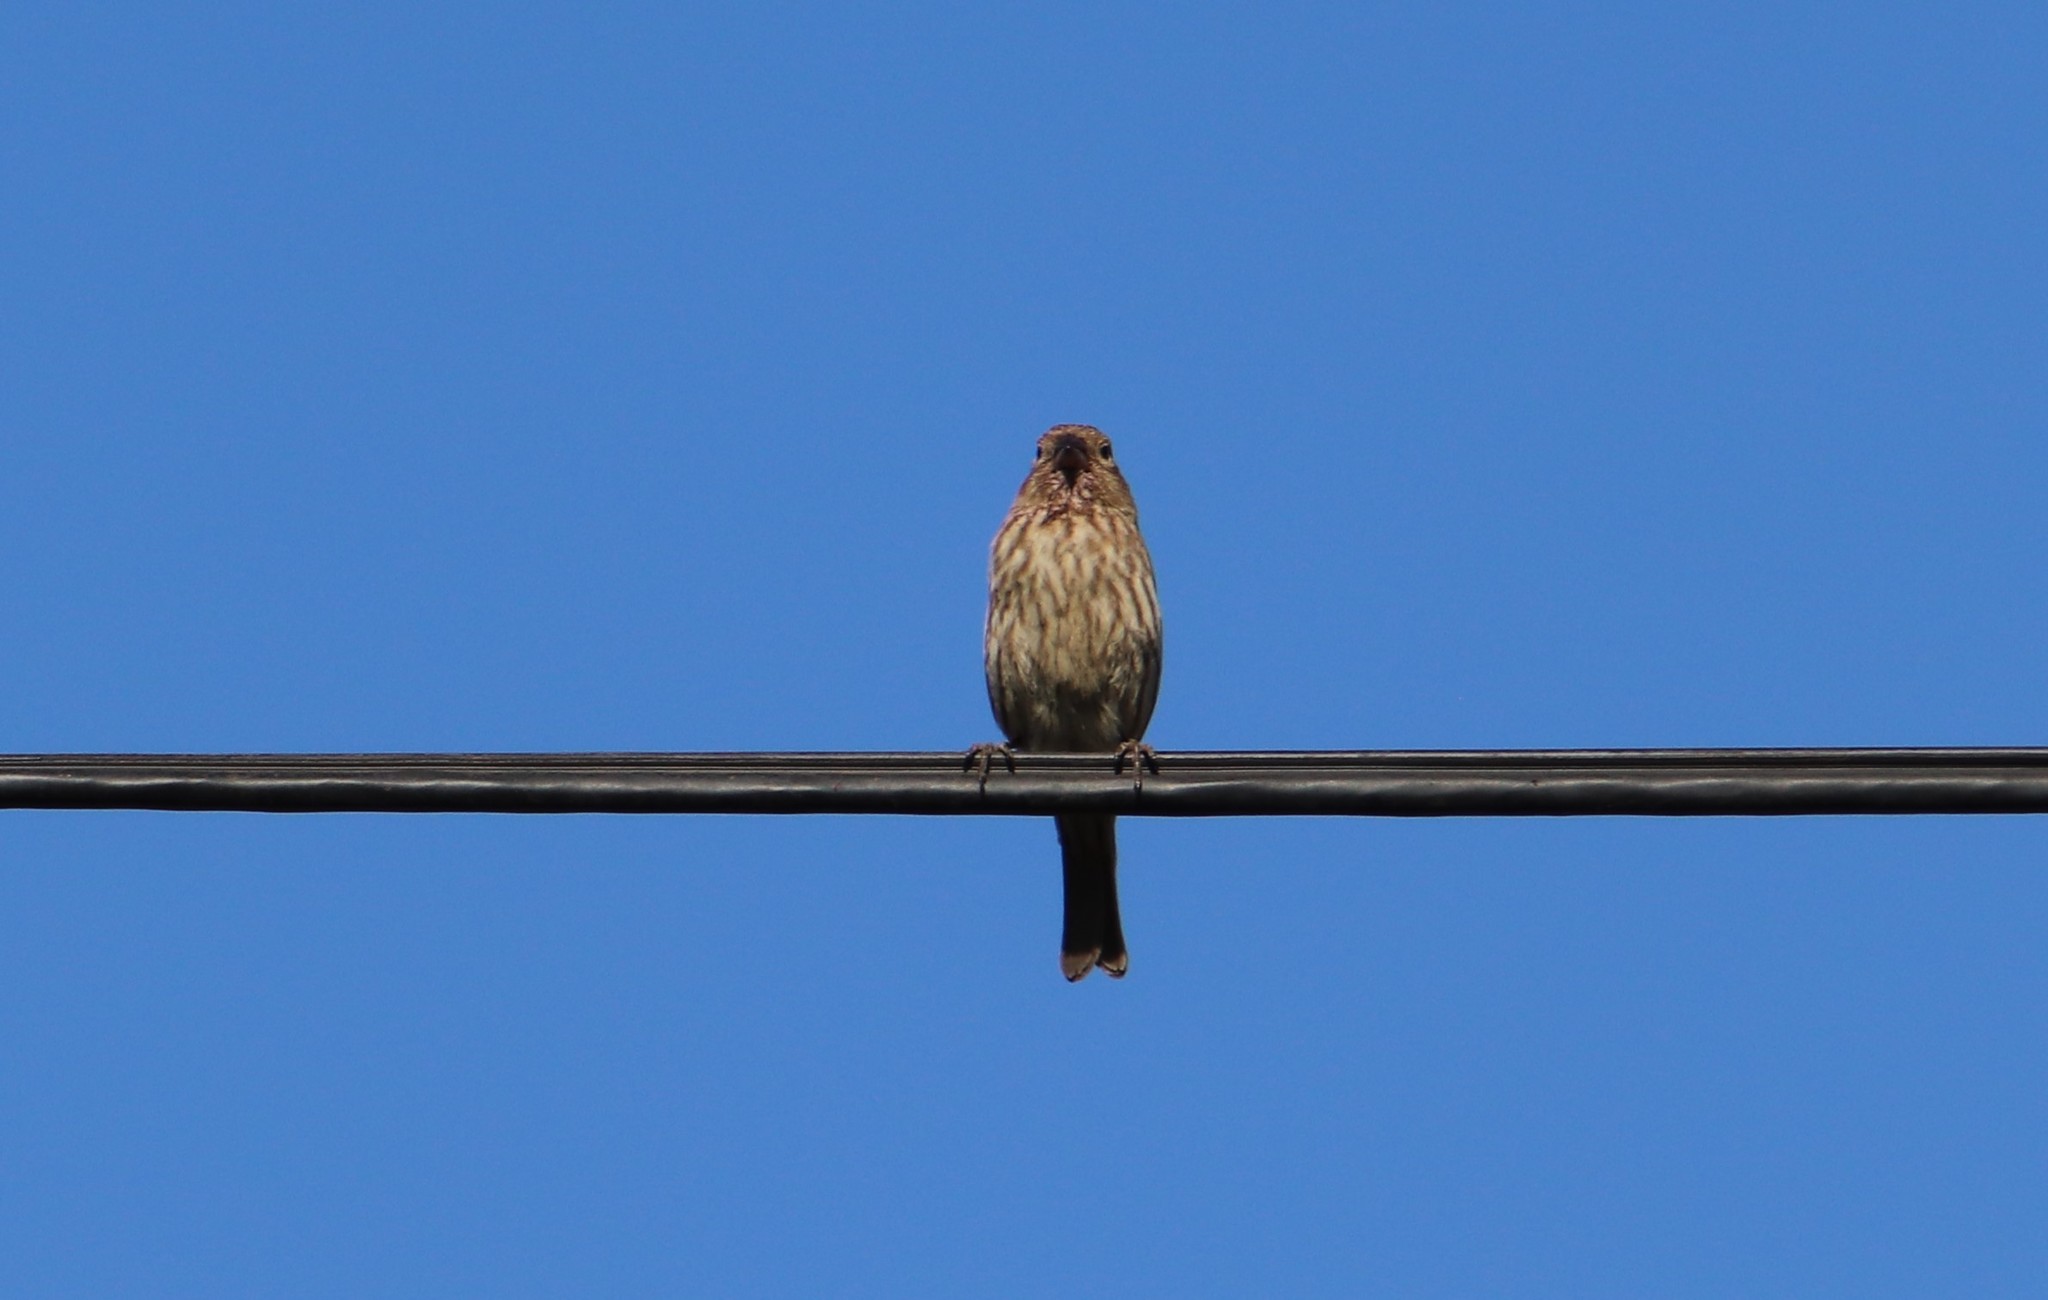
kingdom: Animalia
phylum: Chordata
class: Aves
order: Passeriformes
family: Fringillidae
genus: Haemorhous
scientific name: Haemorhous mexicanus
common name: House finch
